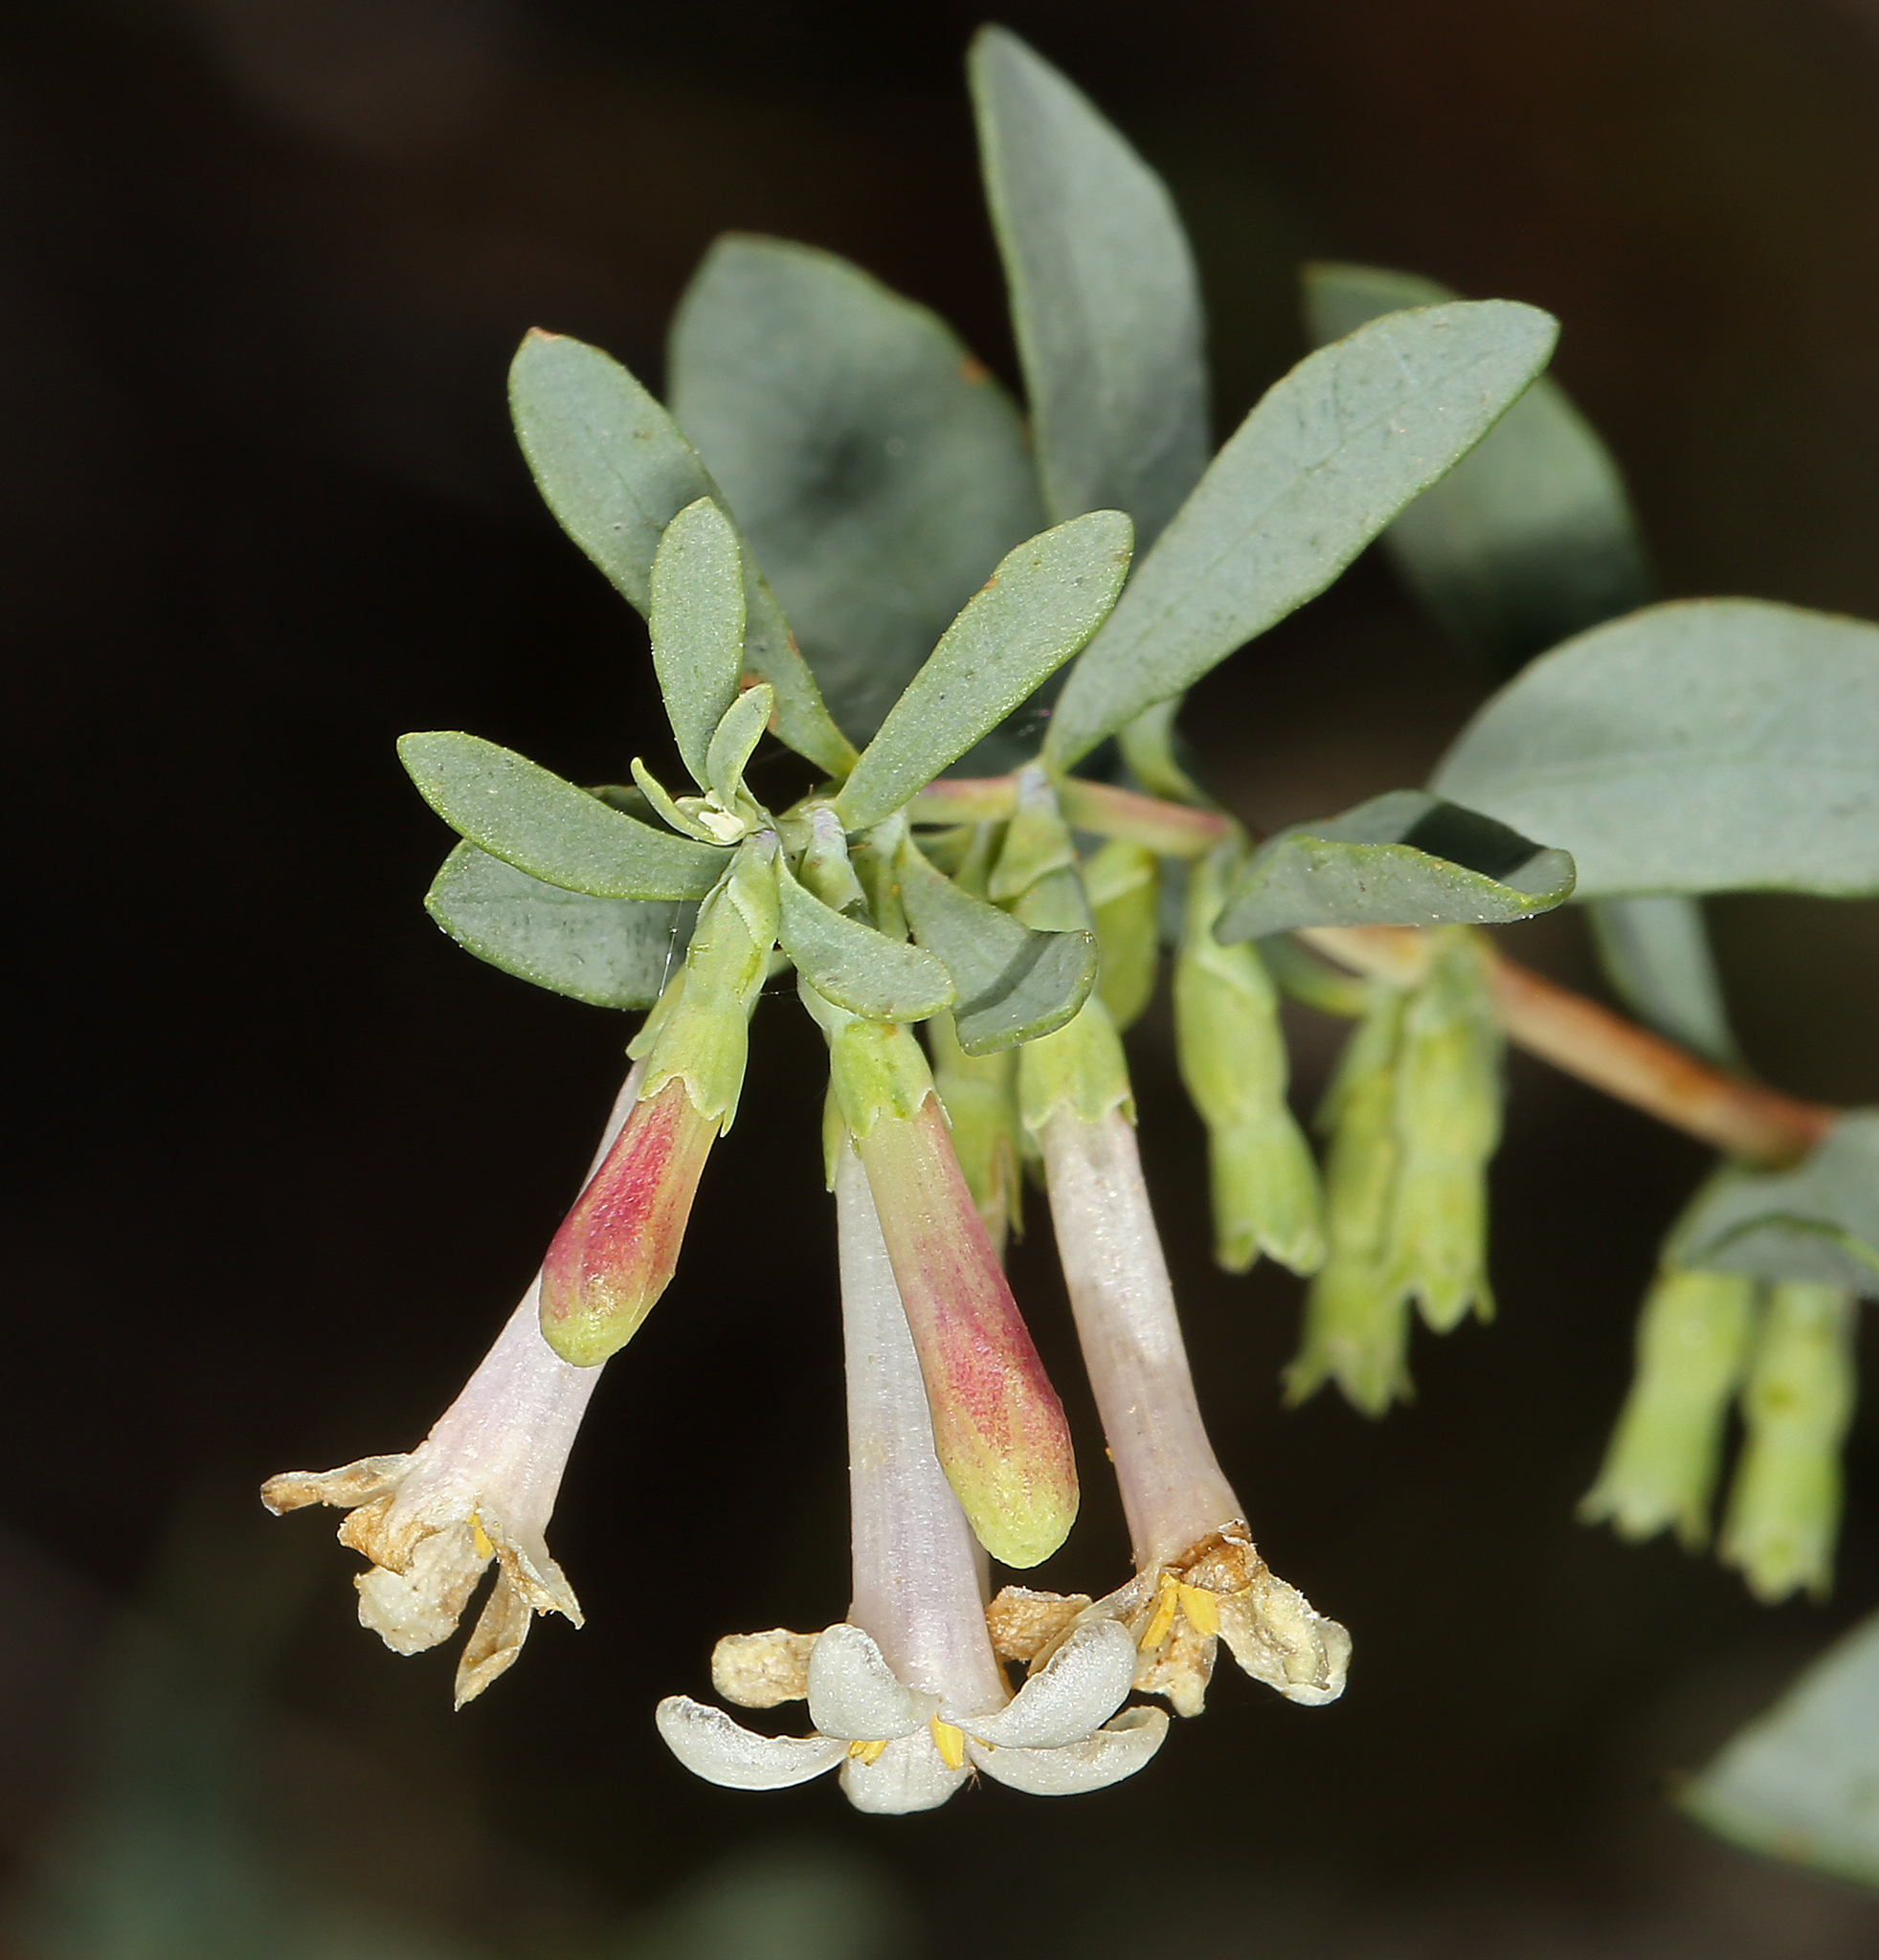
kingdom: Plantae
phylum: Tracheophyta
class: Magnoliopsida
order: Dipsacales
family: Caprifoliaceae
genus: Symphoricarpos
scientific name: Symphoricarpos longiflorus
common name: Fragrant snowberry
